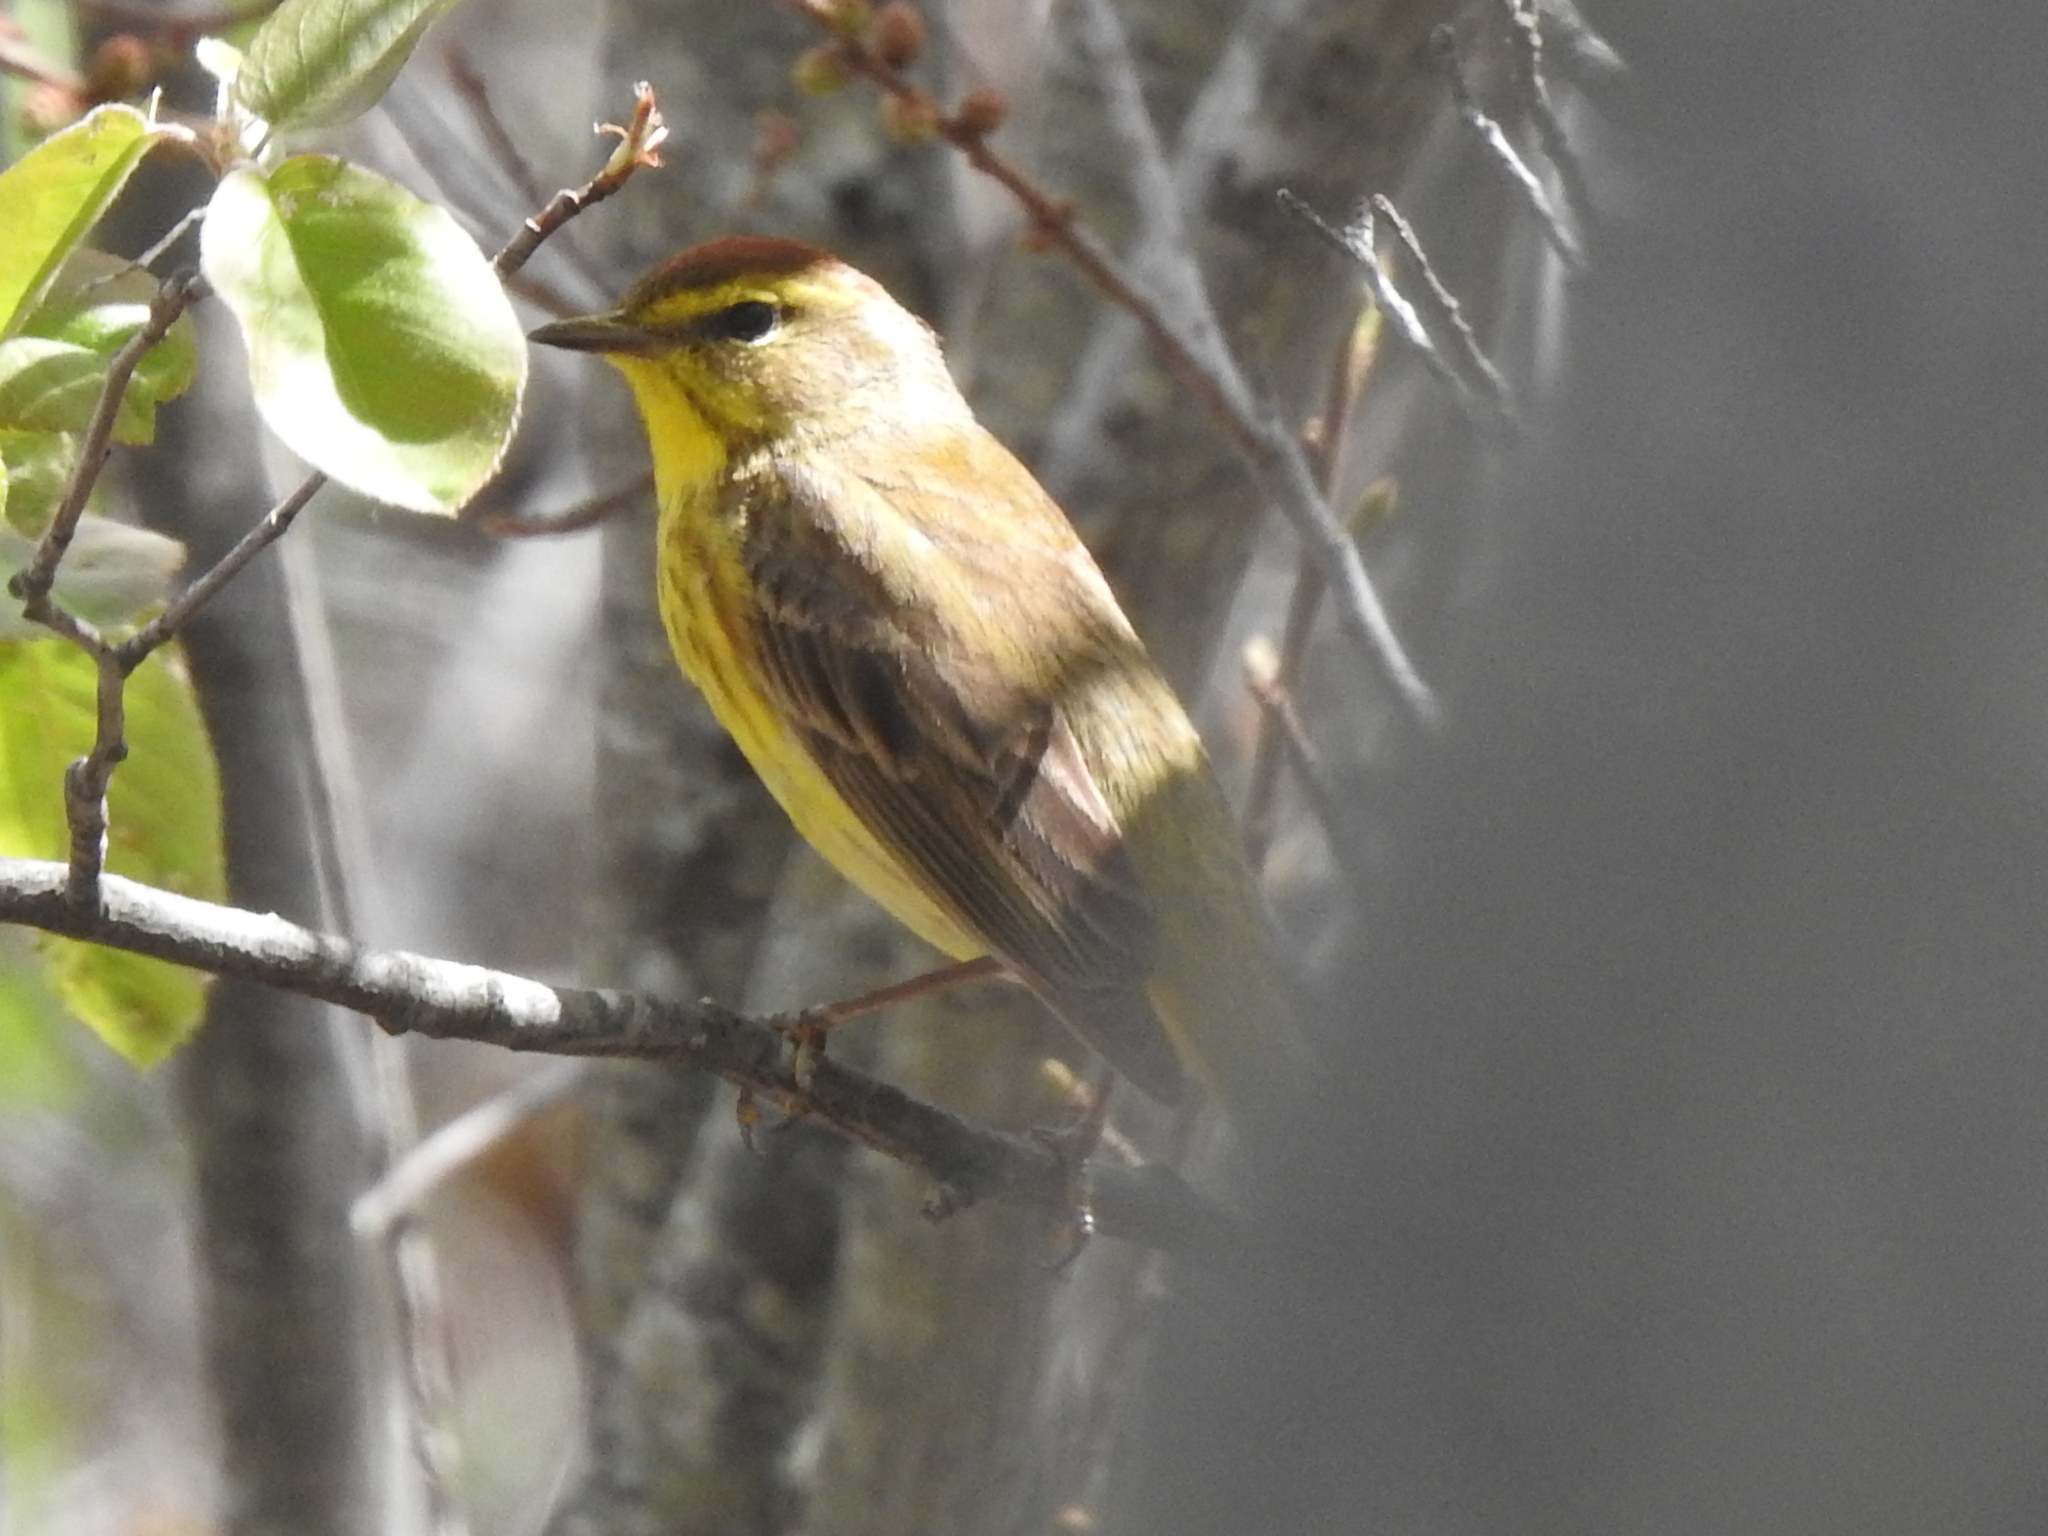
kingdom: Animalia
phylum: Chordata
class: Aves
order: Passeriformes
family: Parulidae
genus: Setophaga
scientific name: Setophaga palmarum
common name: Palm warbler
